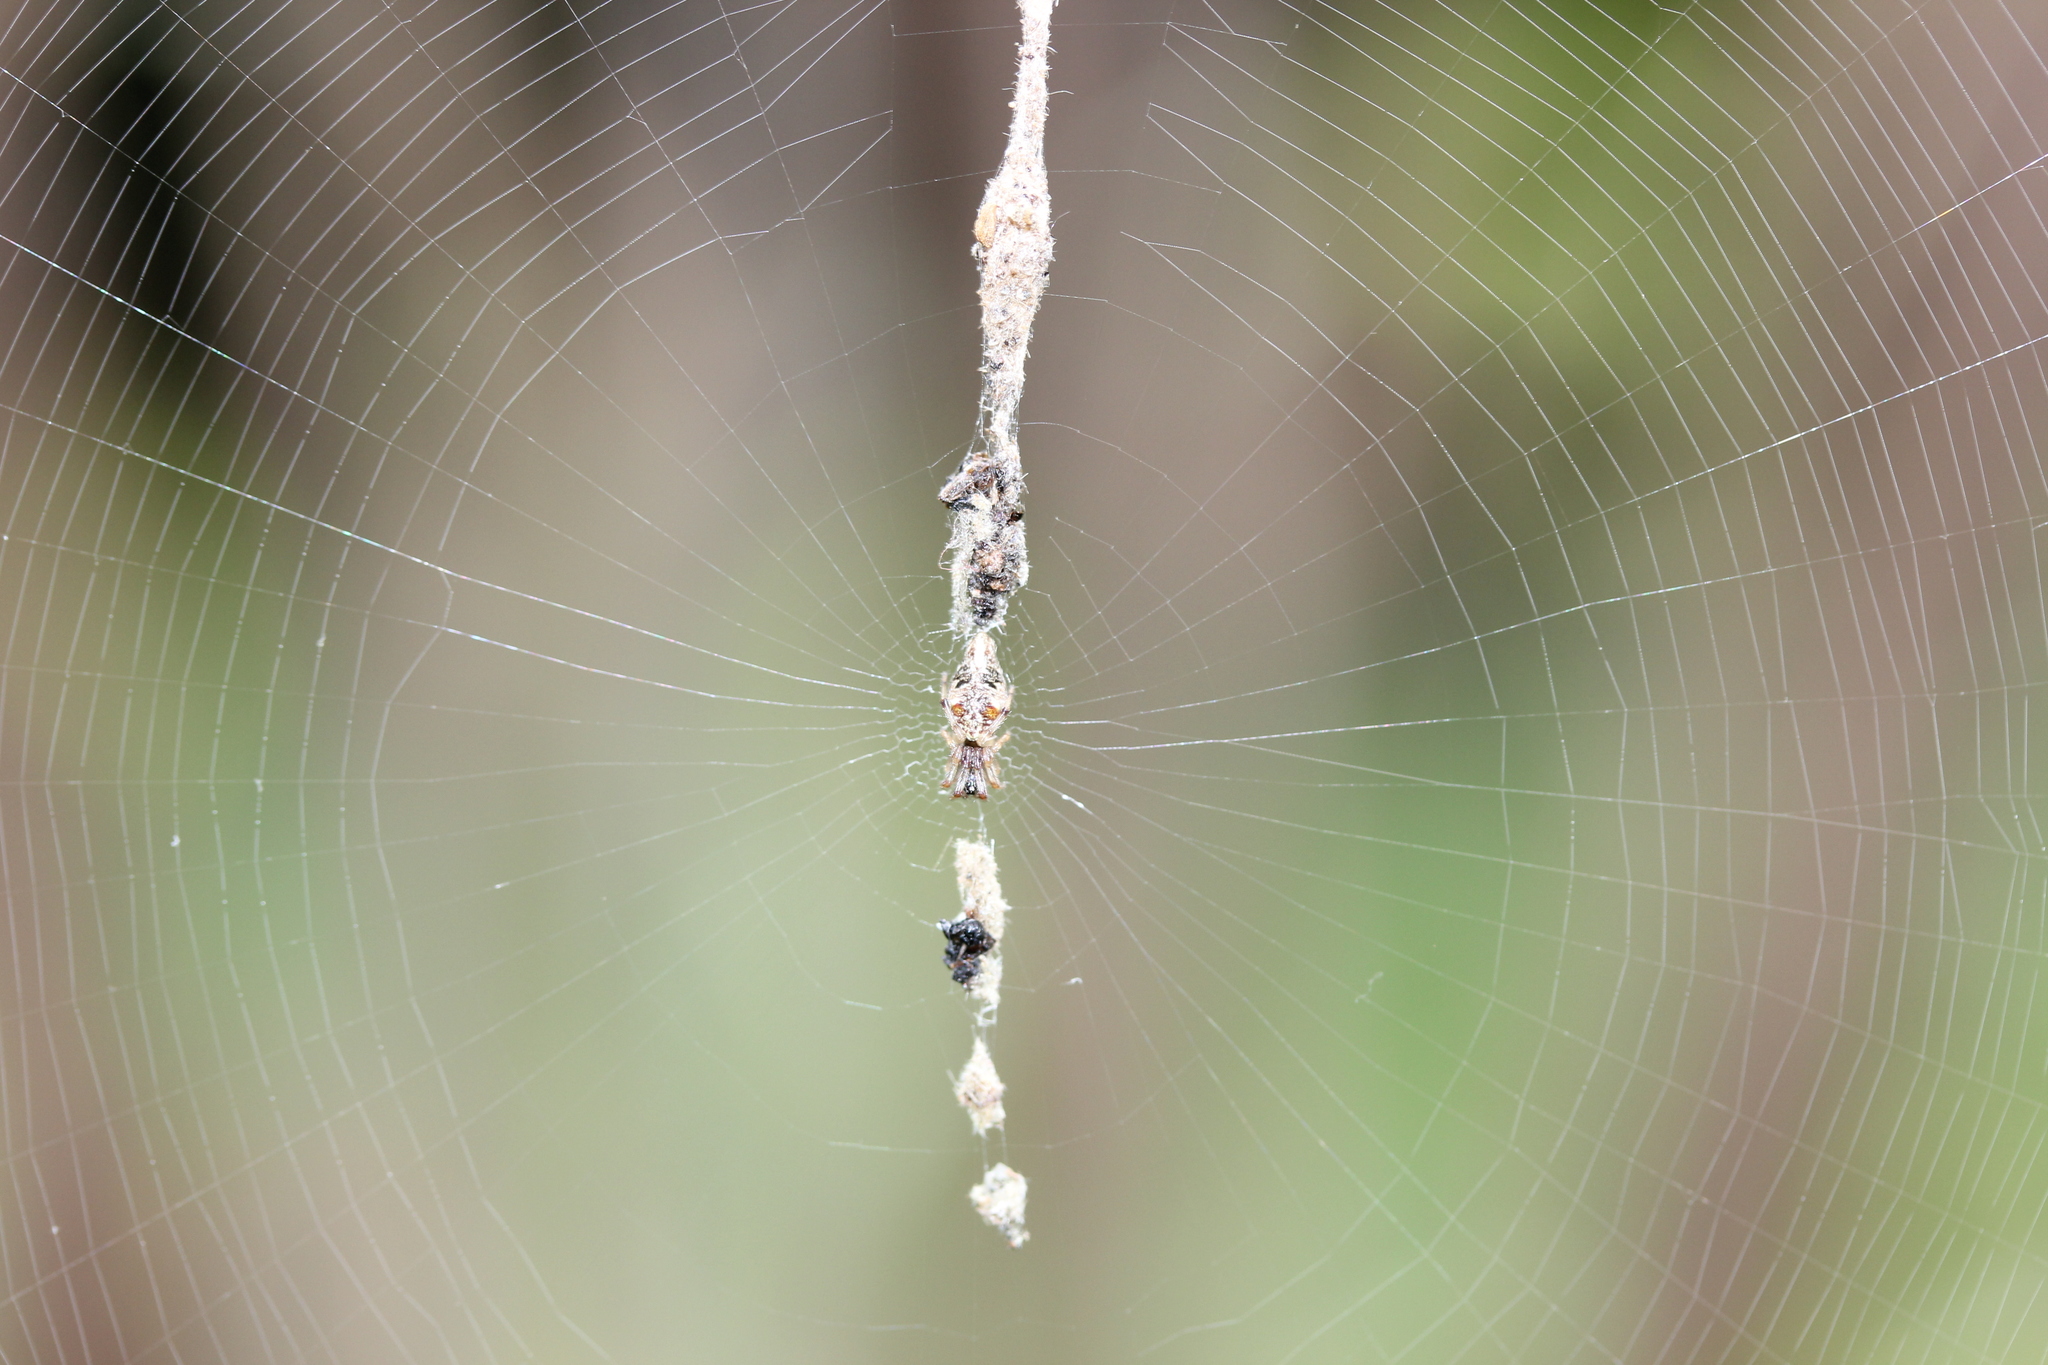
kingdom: Animalia
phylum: Arthropoda
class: Arachnida
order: Araneae
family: Araneidae
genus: Cyclosa
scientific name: Cyclosa turbinata
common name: Orb weavers
